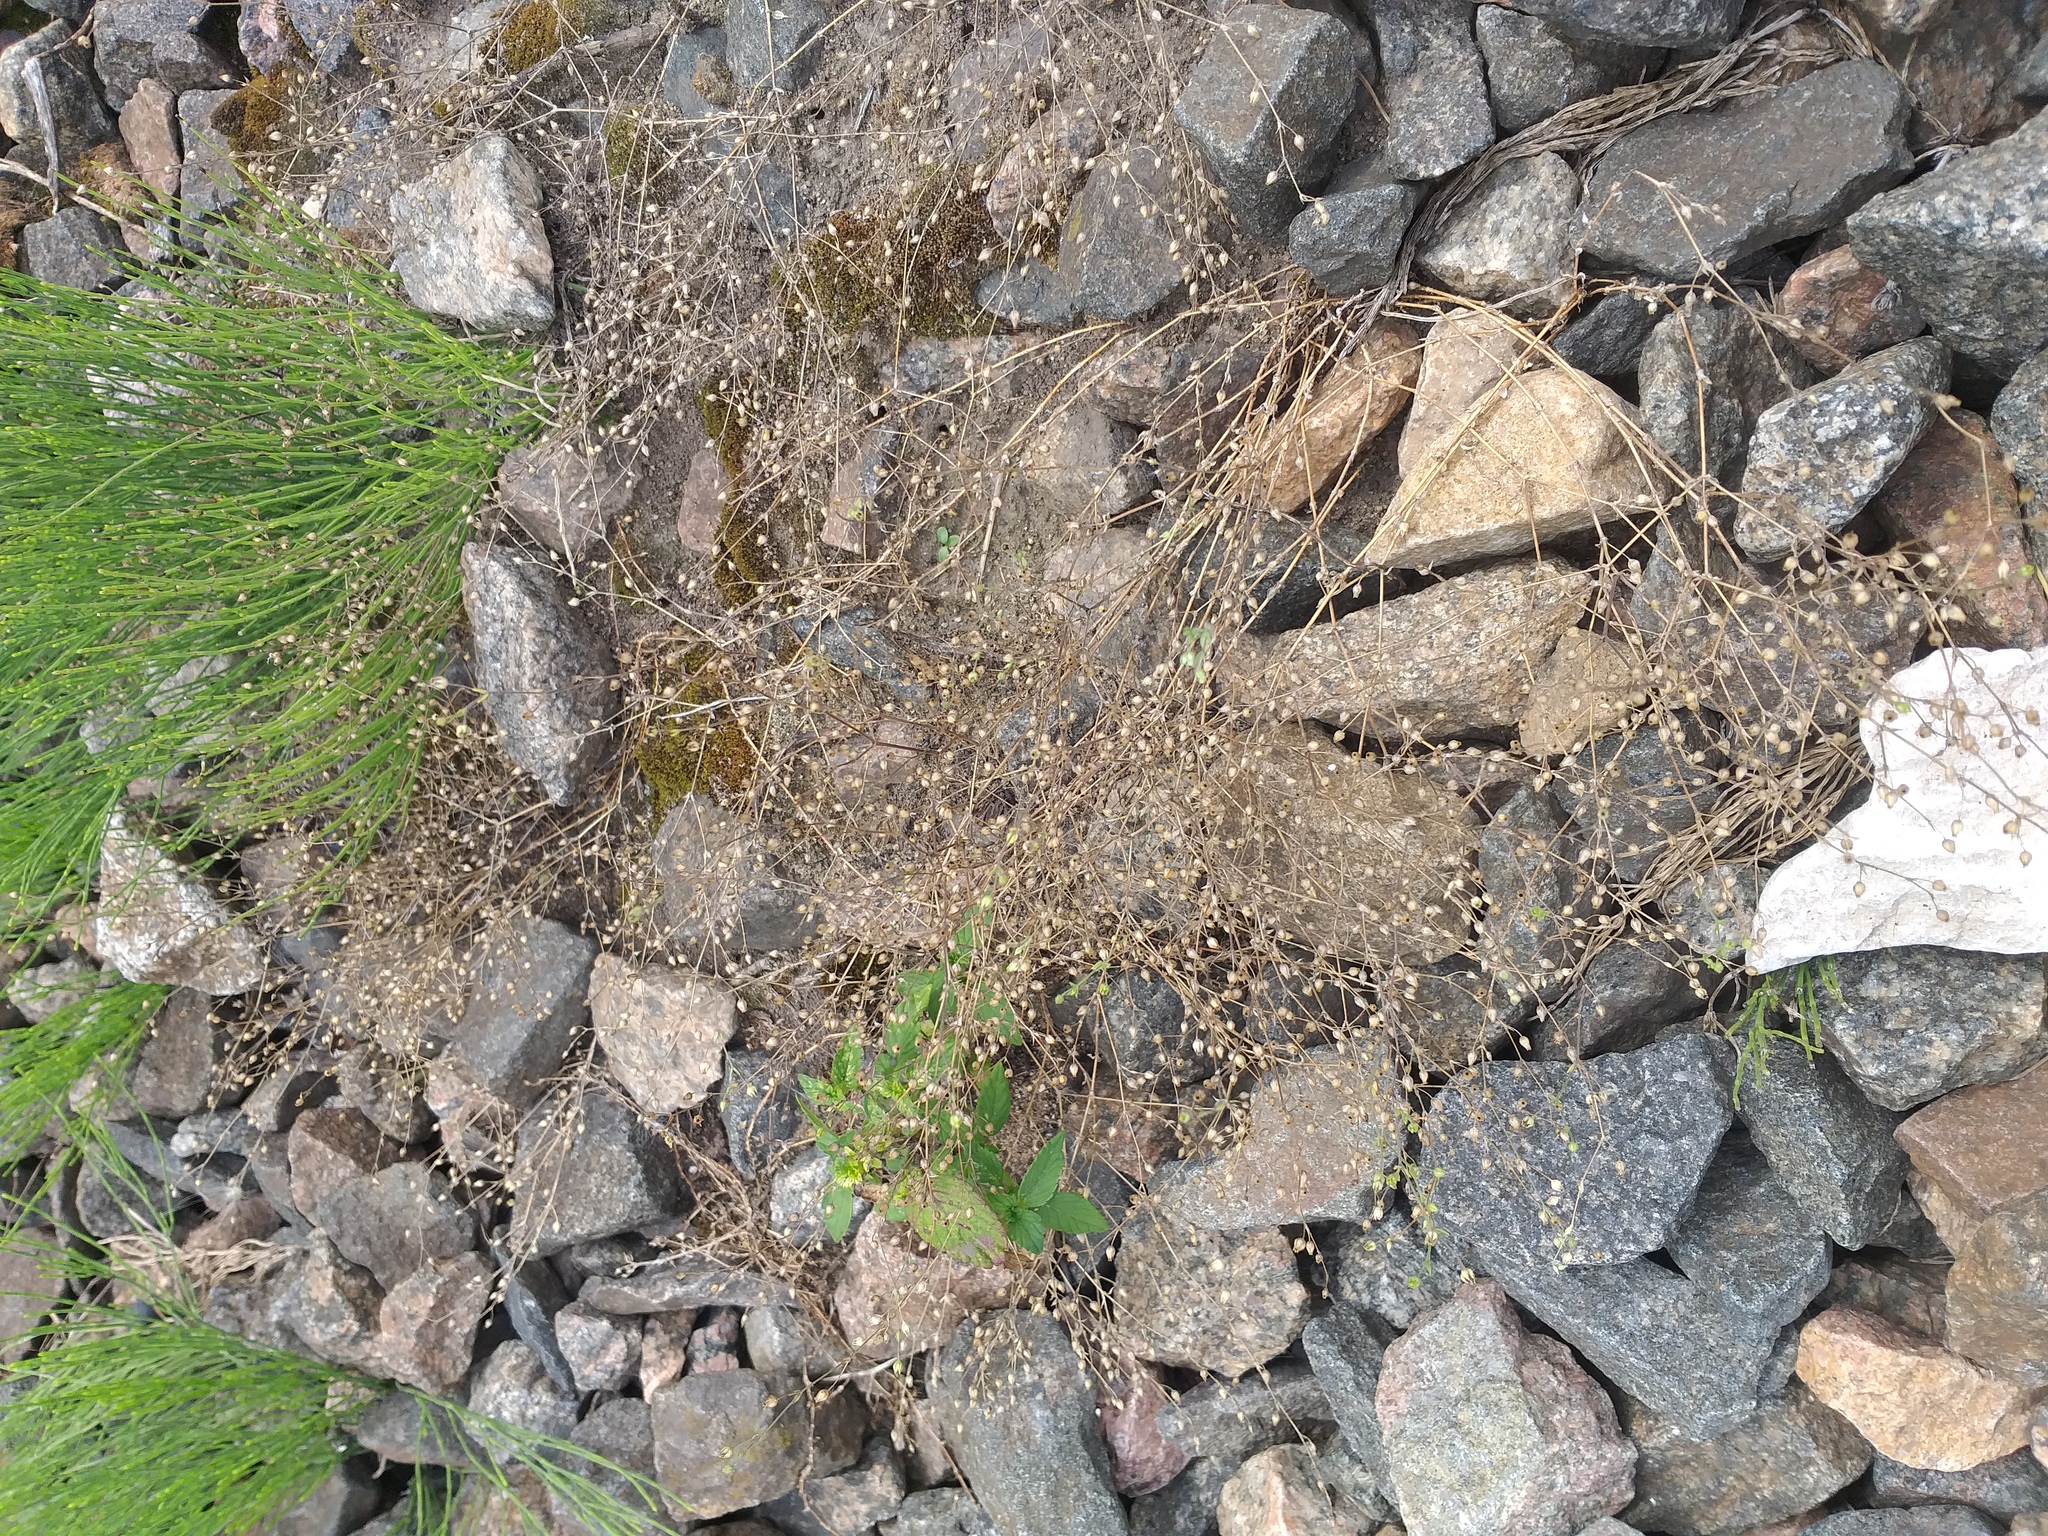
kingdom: Plantae
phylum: Tracheophyta
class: Magnoliopsida
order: Caryophyllales
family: Caryophyllaceae
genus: Arenaria
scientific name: Arenaria serpyllifolia
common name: Thyme-leaved sandwort
